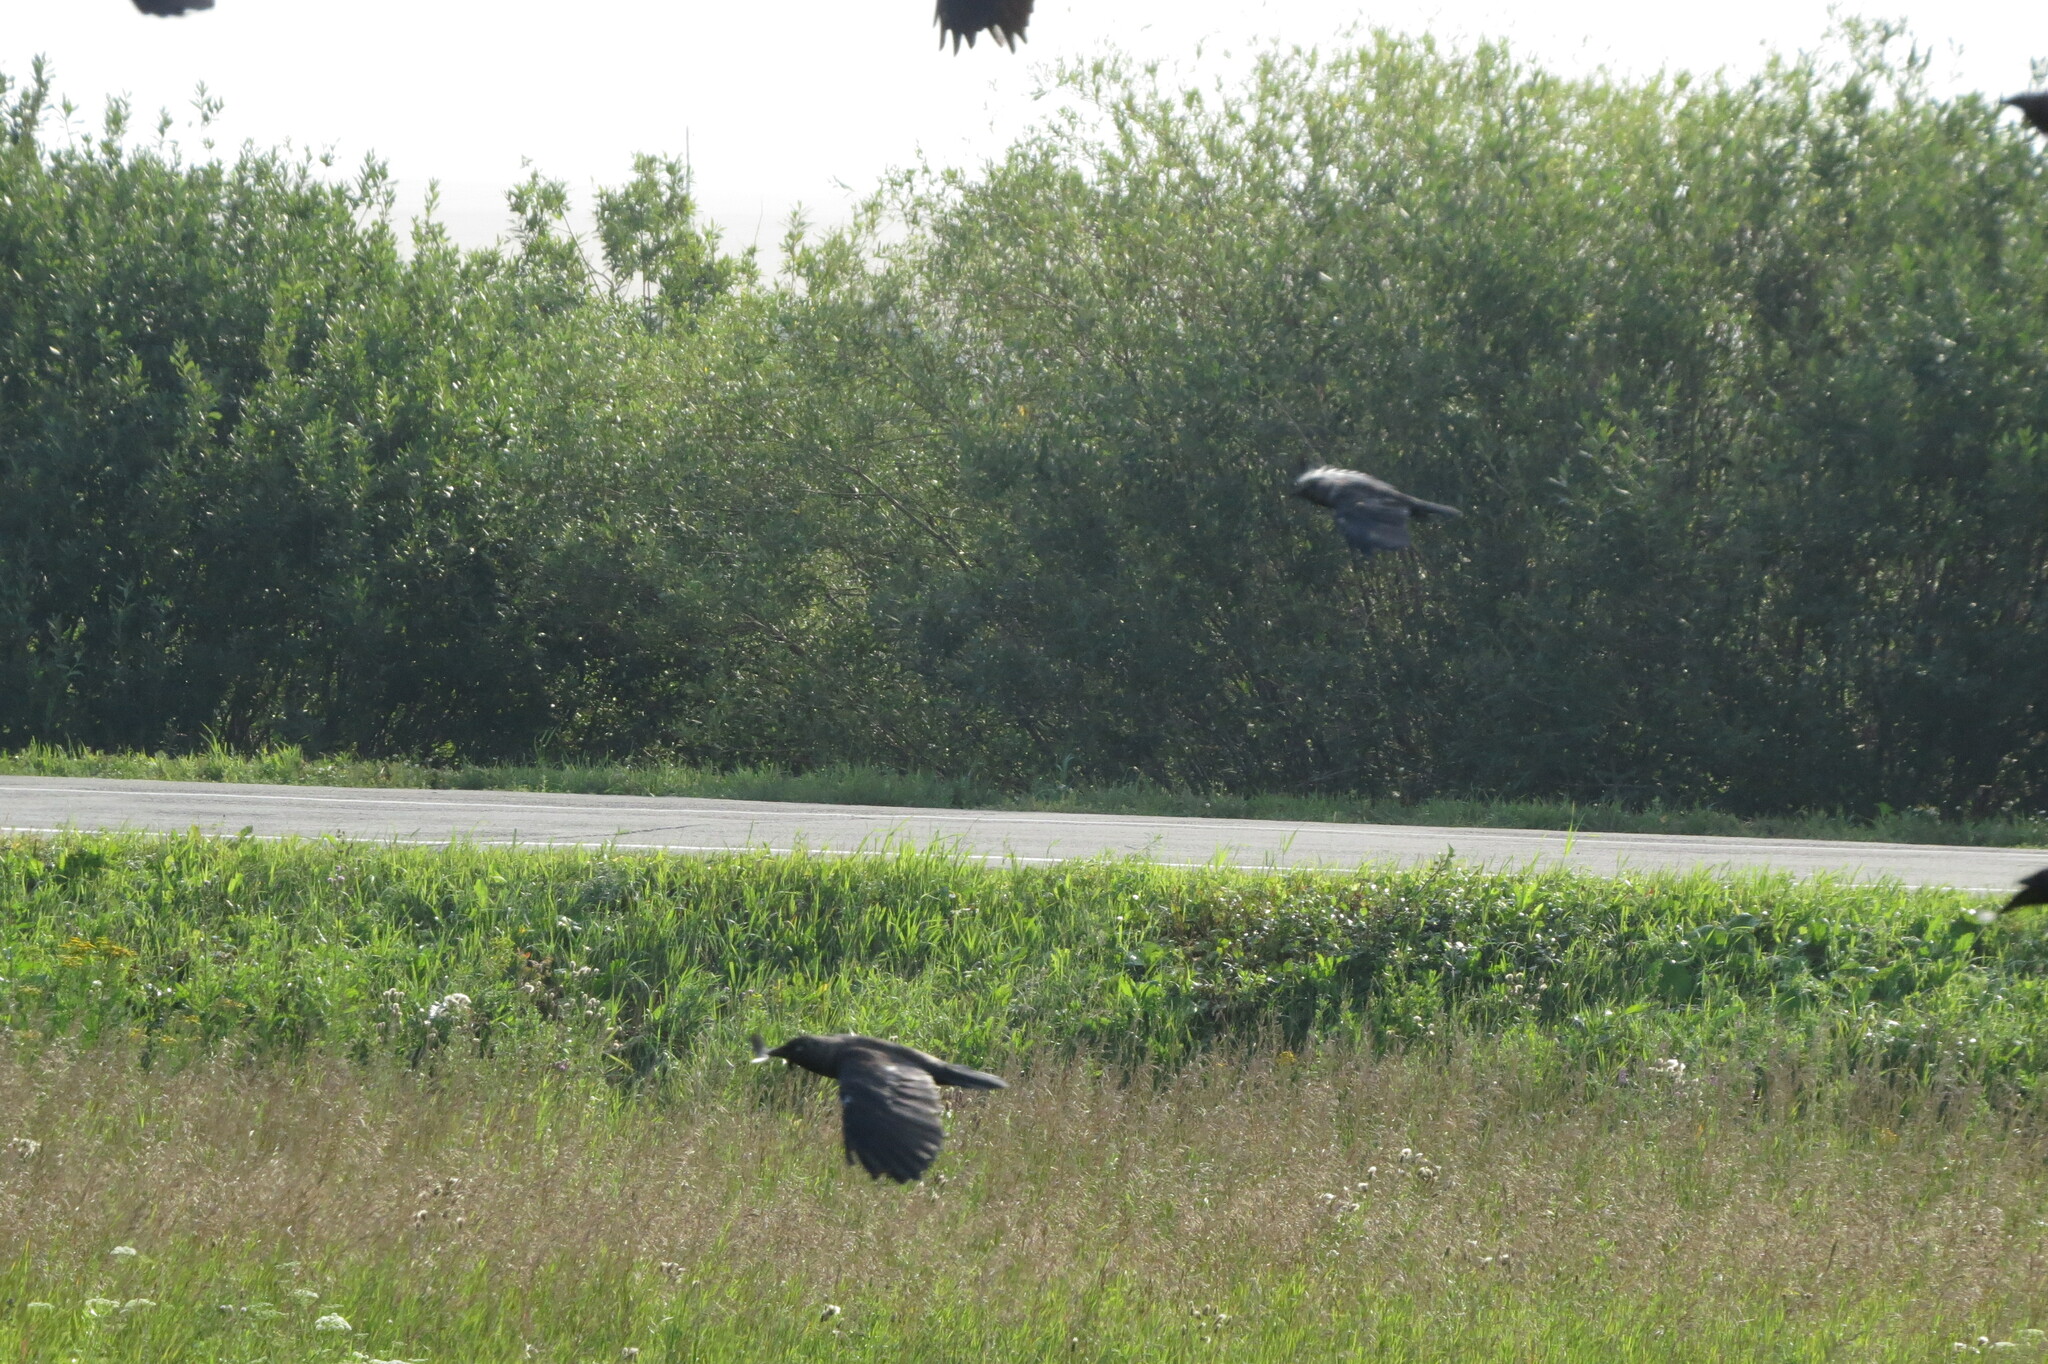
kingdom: Animalia
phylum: Chordata
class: Aves
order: Passeriformes
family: Corvidae
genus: Corvus
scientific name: Corvus frugilegus
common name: Rook
